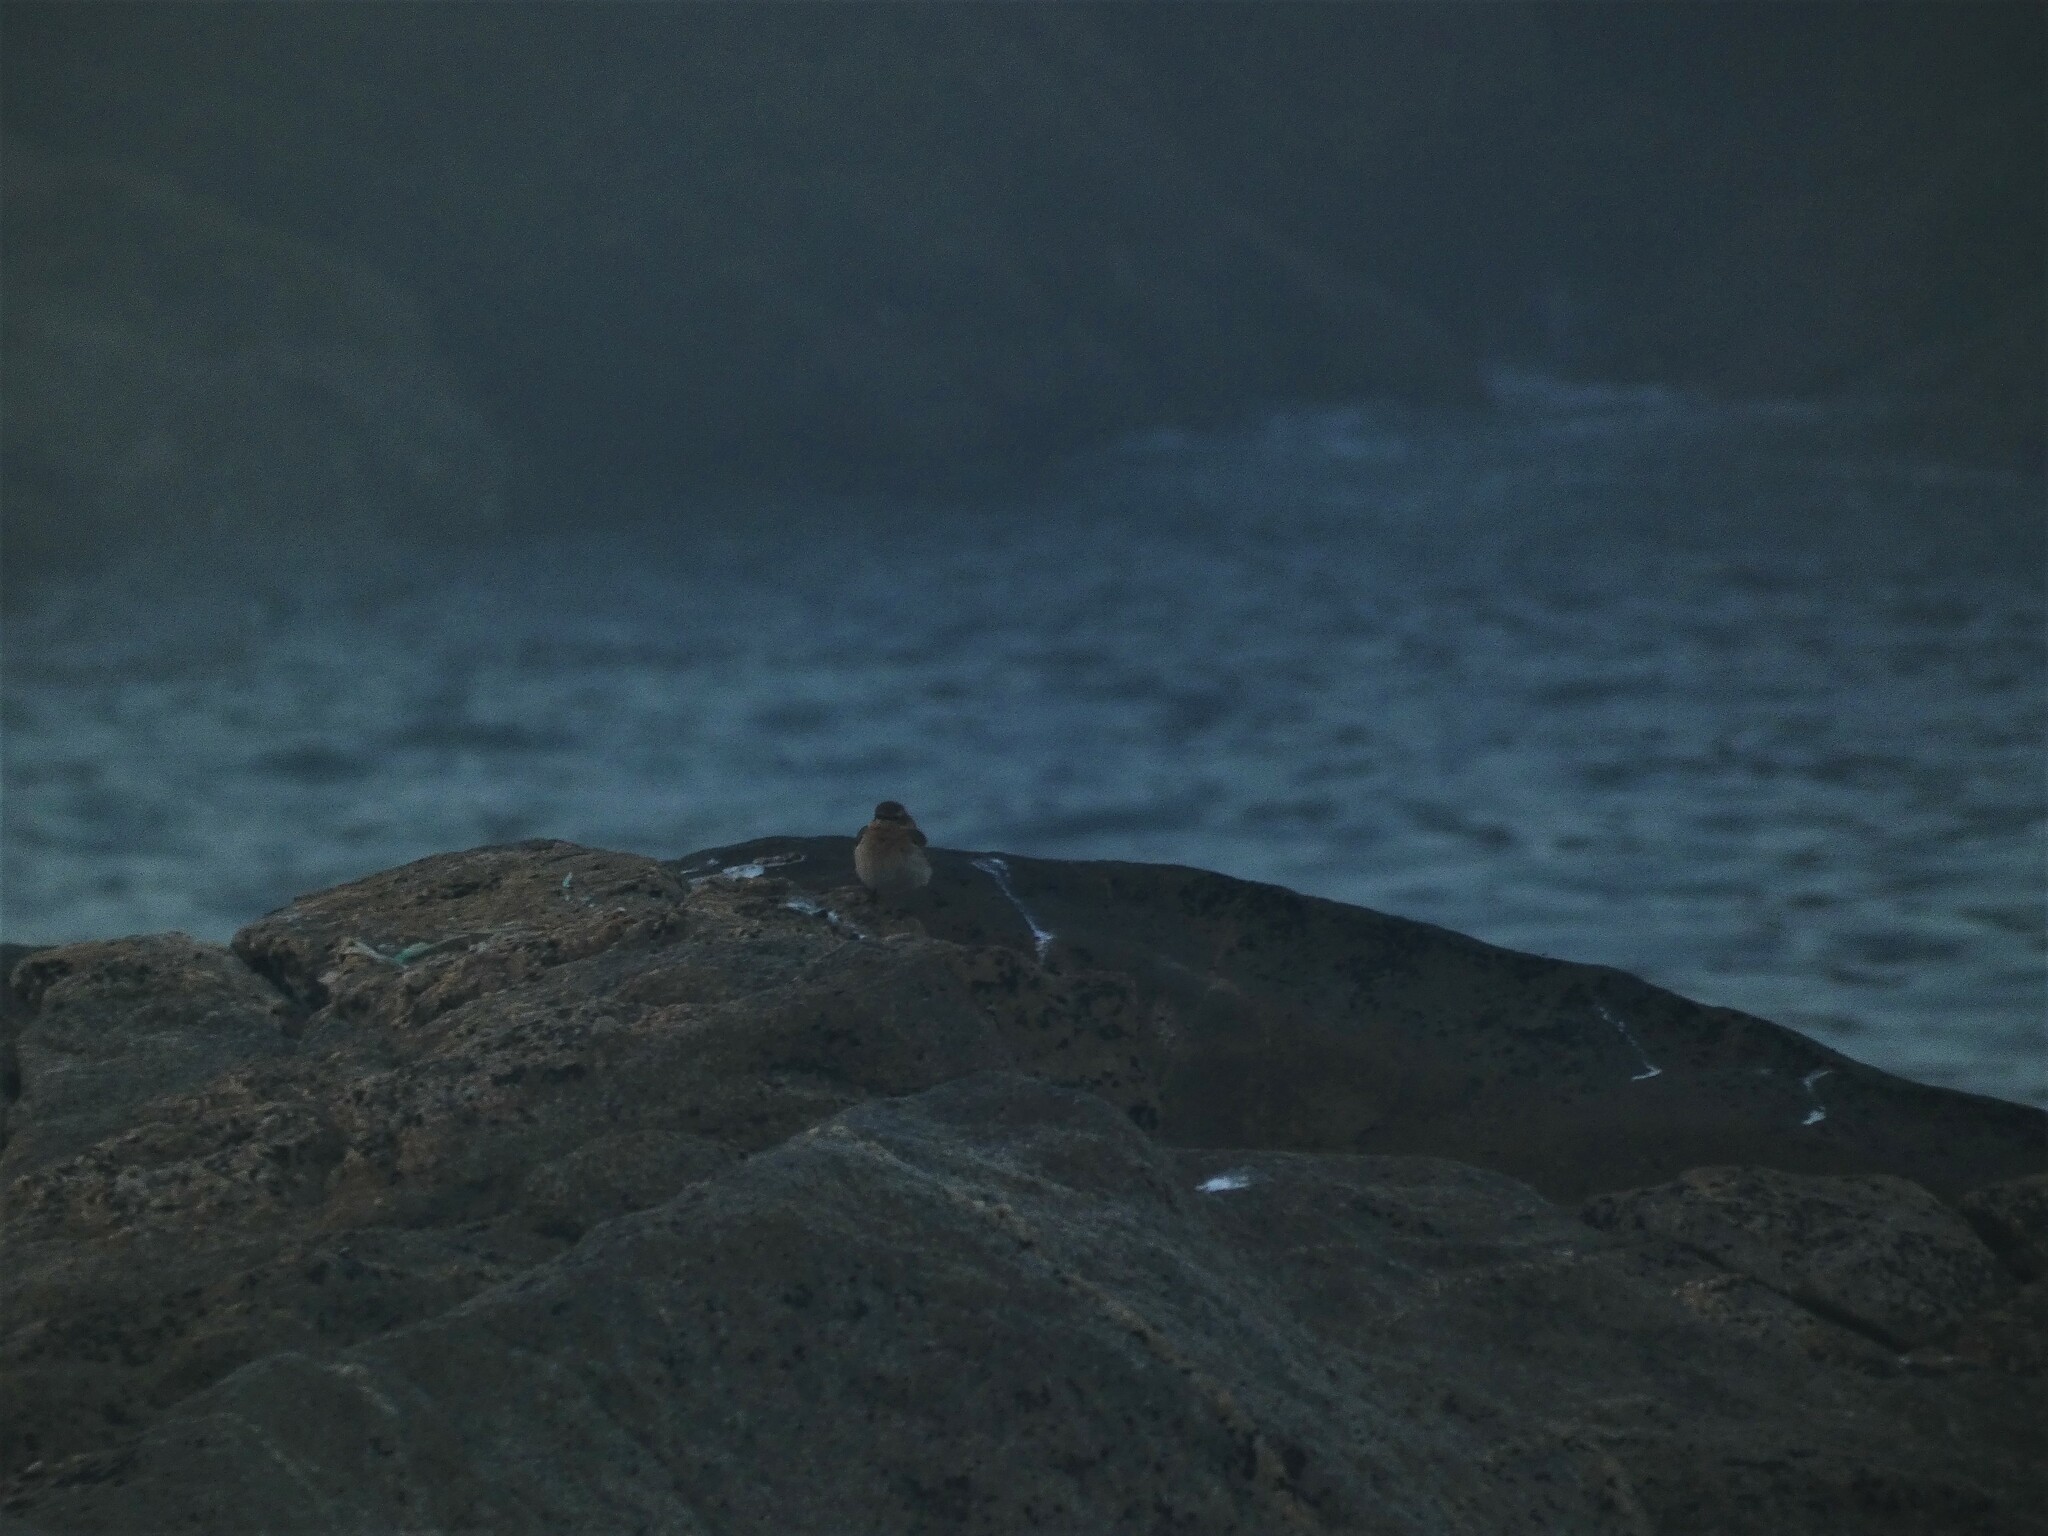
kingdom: Animalia
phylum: Chordata
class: Aves
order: Passeriformes
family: Muscicapidae
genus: Oenanthe
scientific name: Oenanthe oenanthe
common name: Northern wheatear
